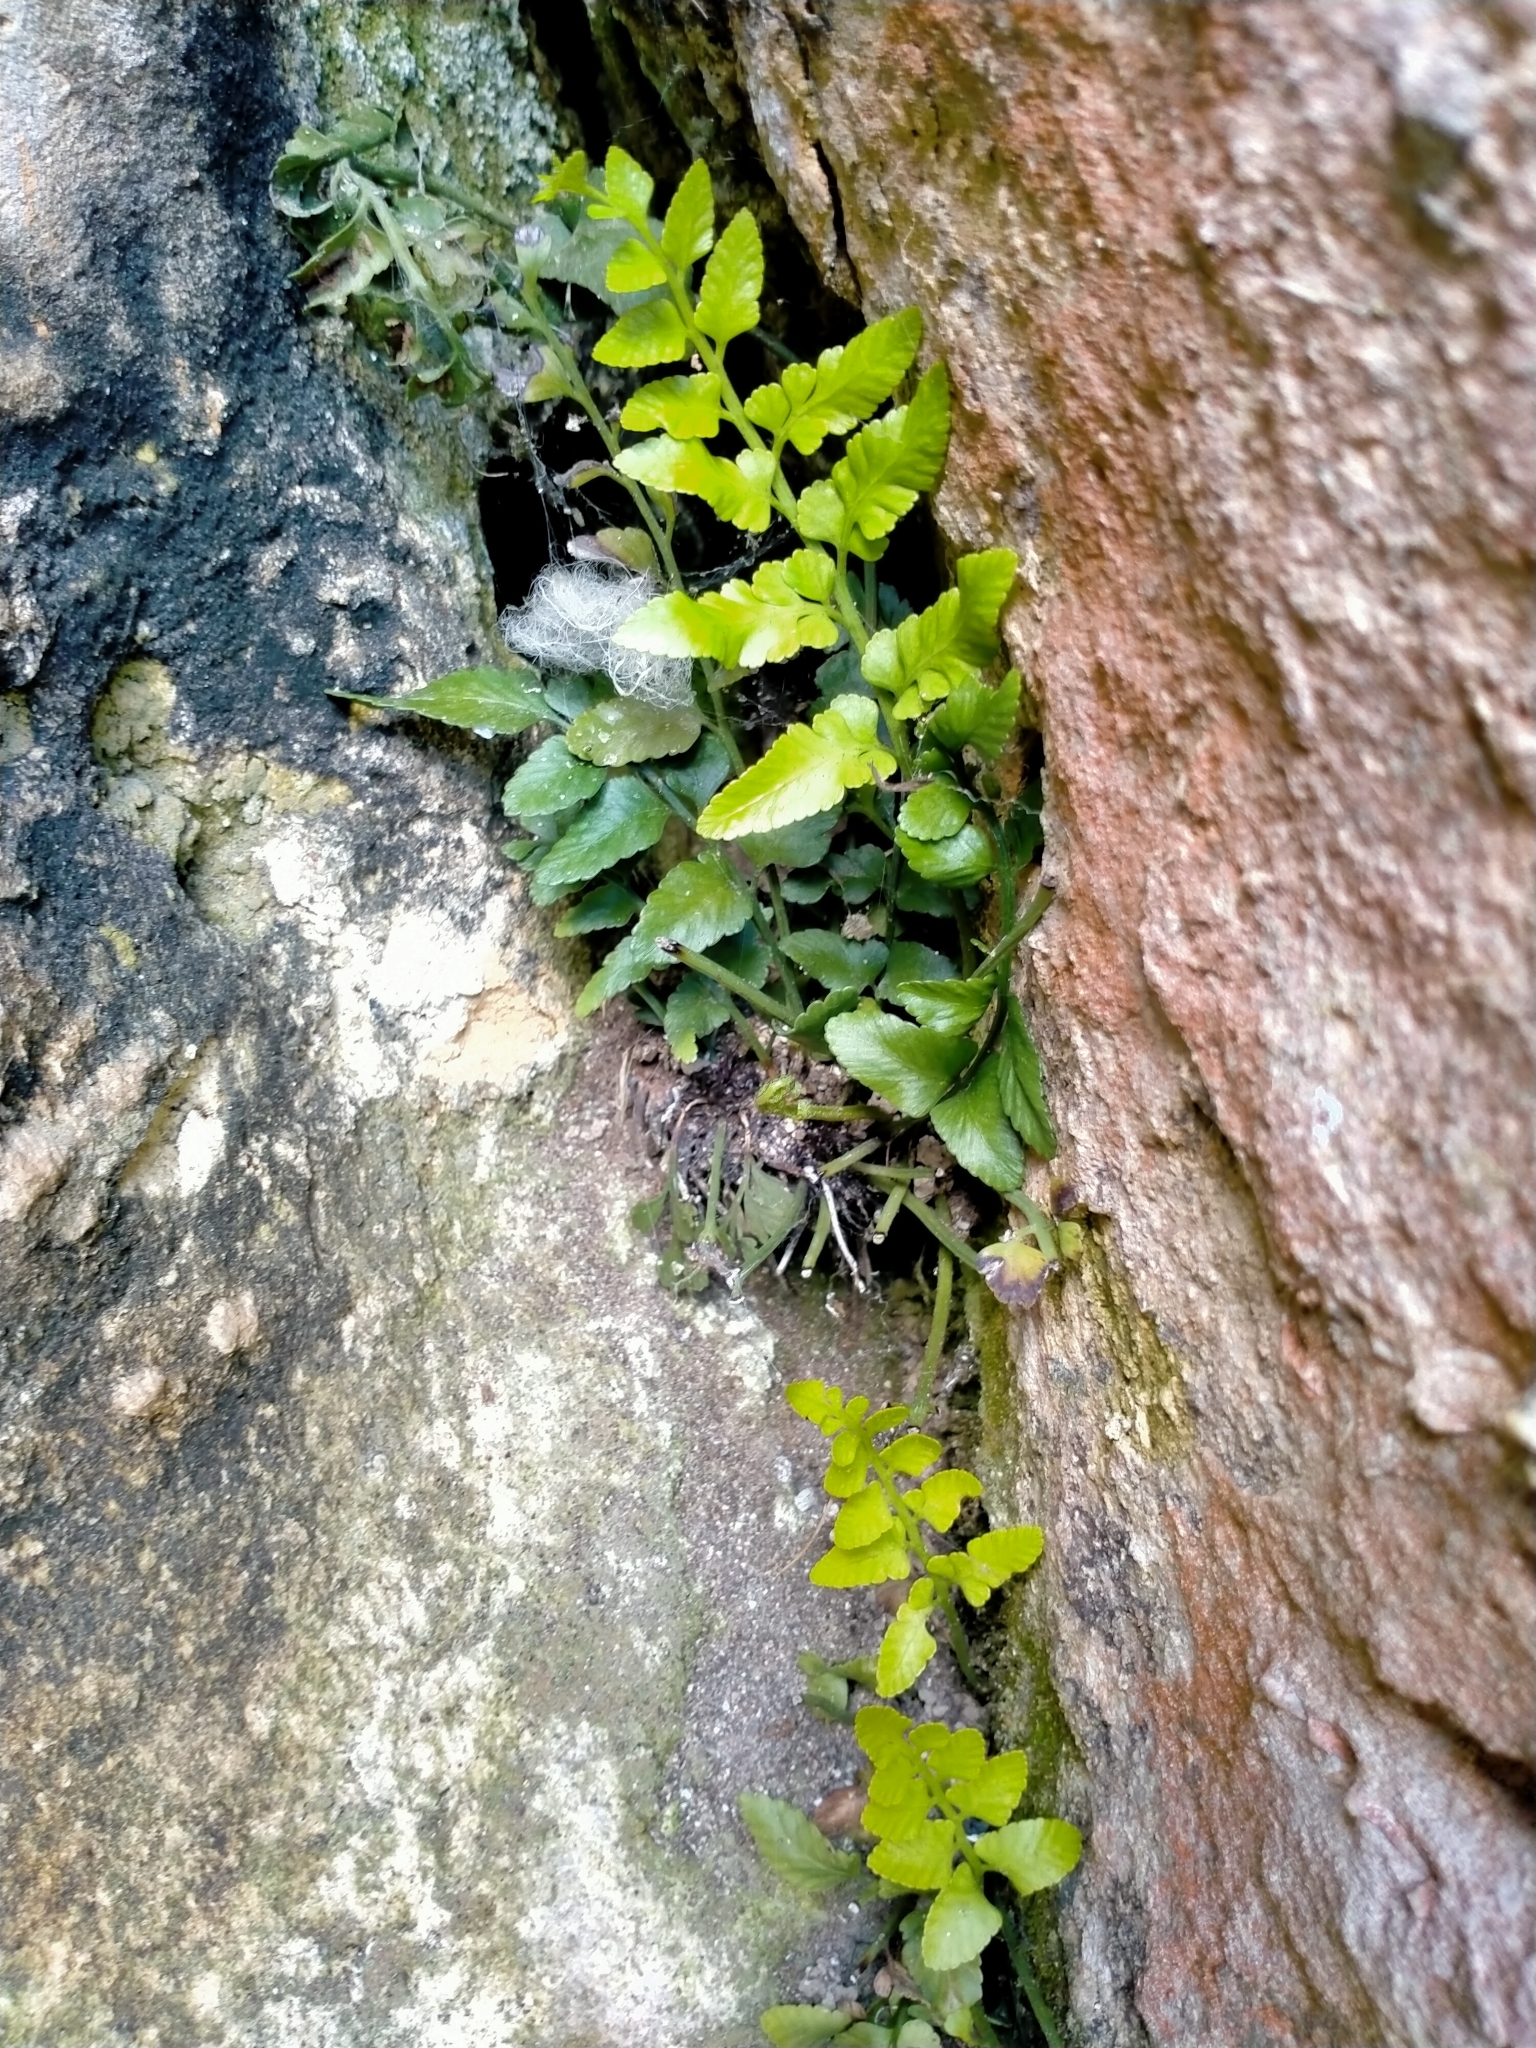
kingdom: Plantae
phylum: Tracheophyta
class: Polypodiopsida
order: Polypodiales
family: Aspleniaceae
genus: Asplenium
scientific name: Asplenium lyallii
